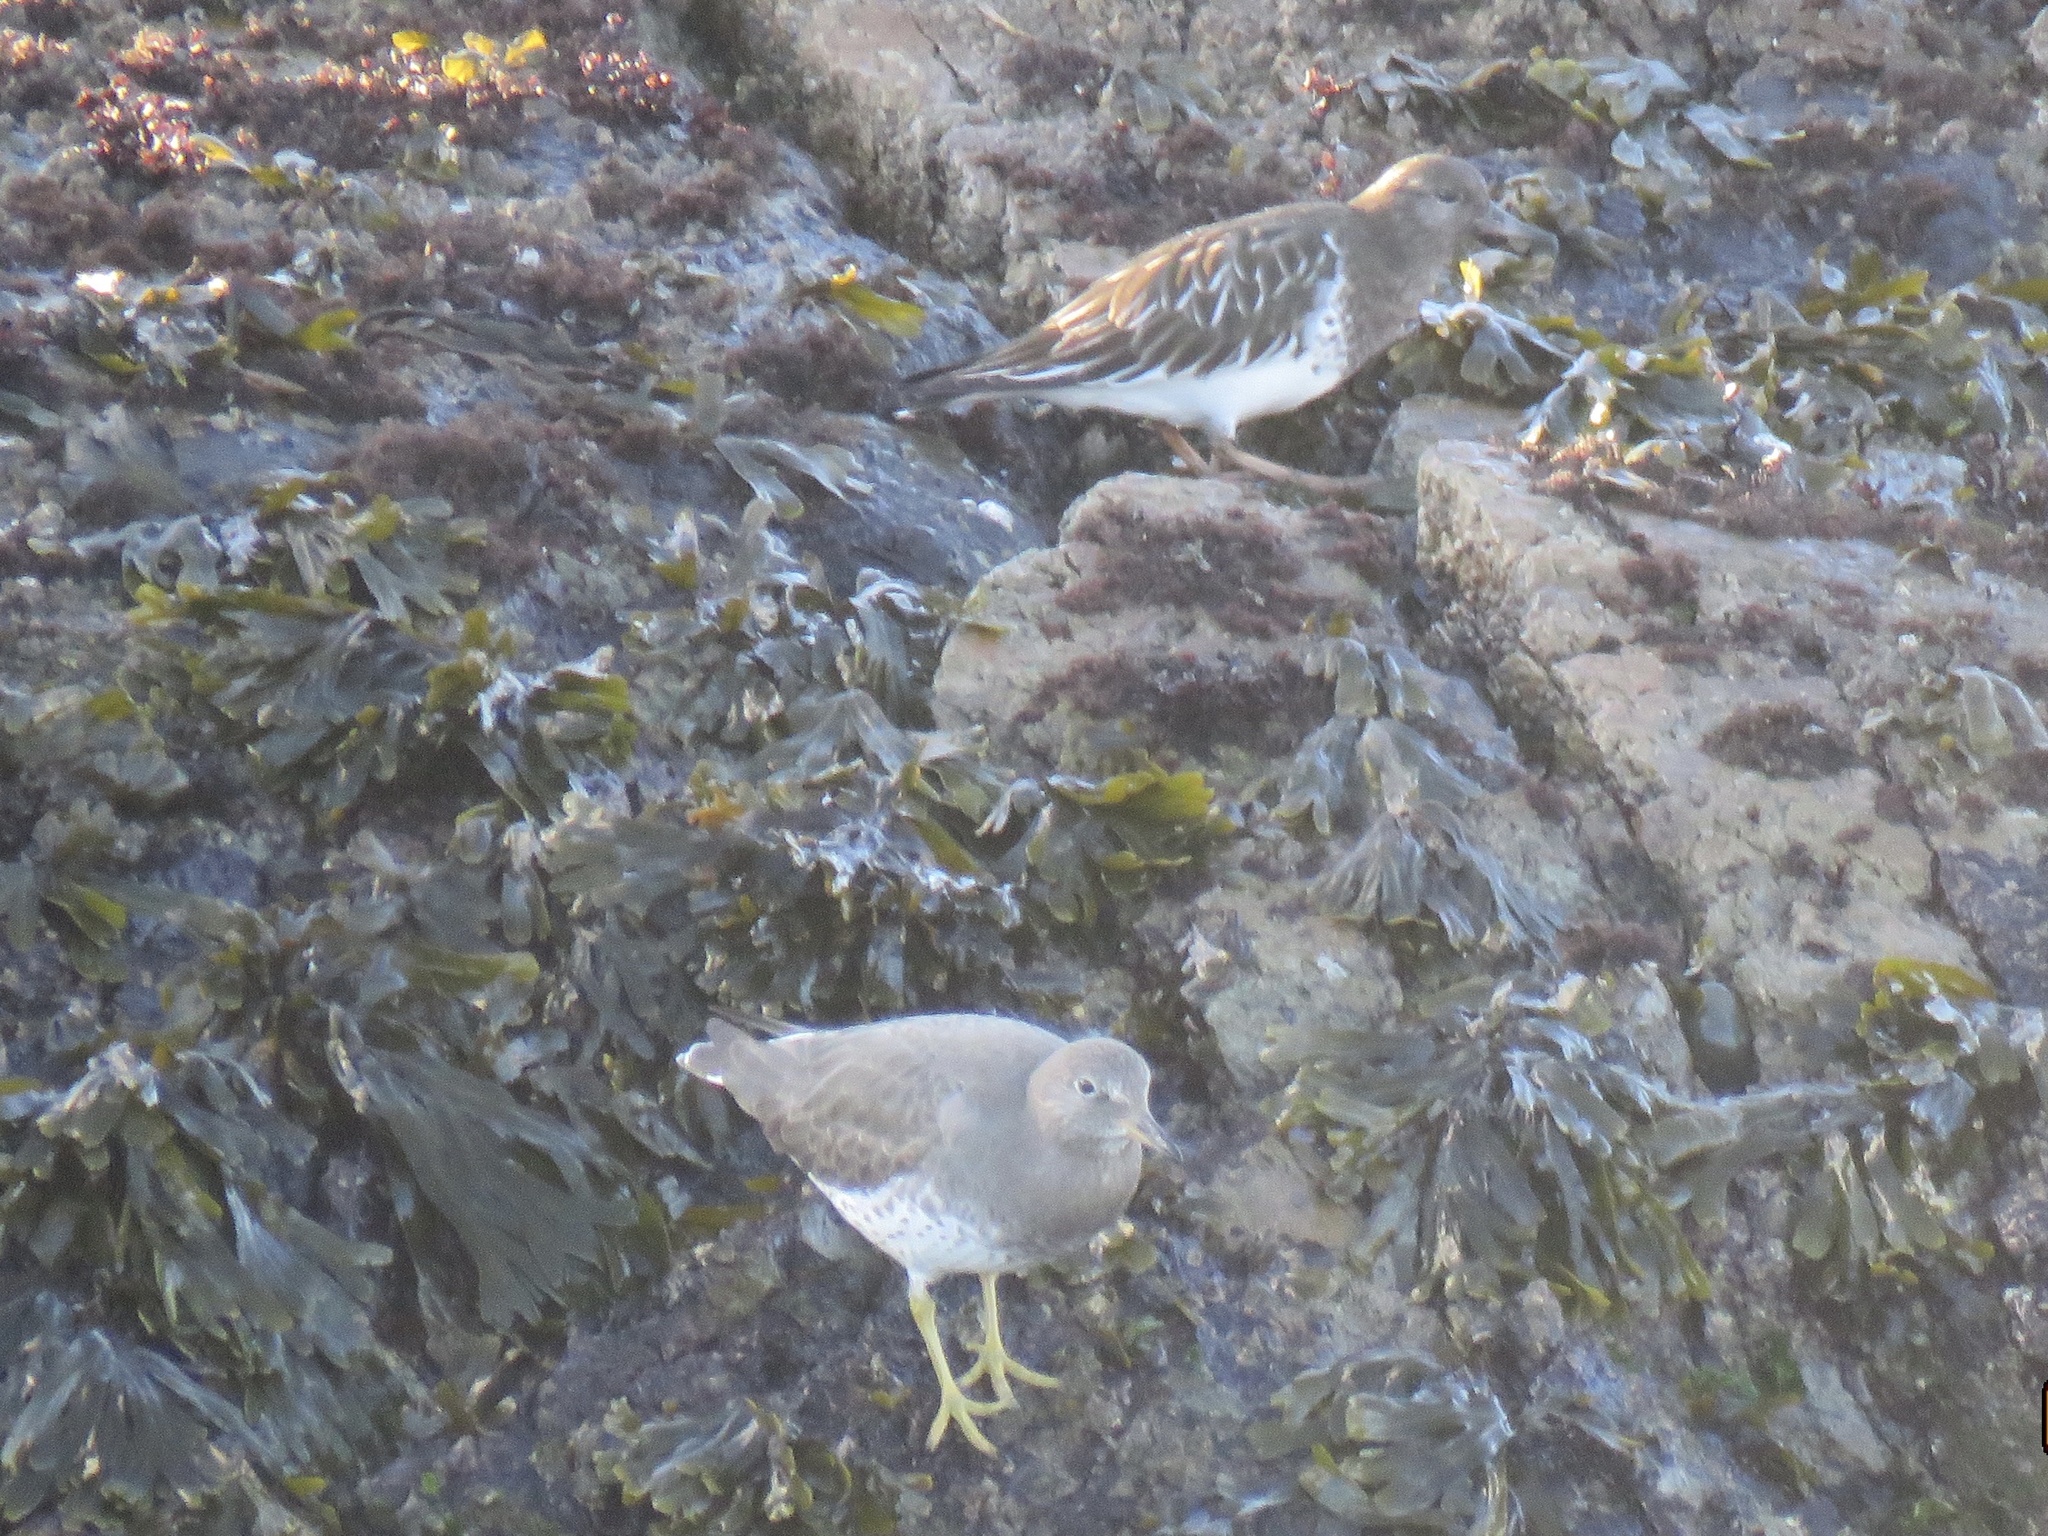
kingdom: Animalia
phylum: Chordata
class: Aves
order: Charadriiformes
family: Scolopacidae
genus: Arenaria
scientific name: Arenaria melanocephala
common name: Black turnstone
